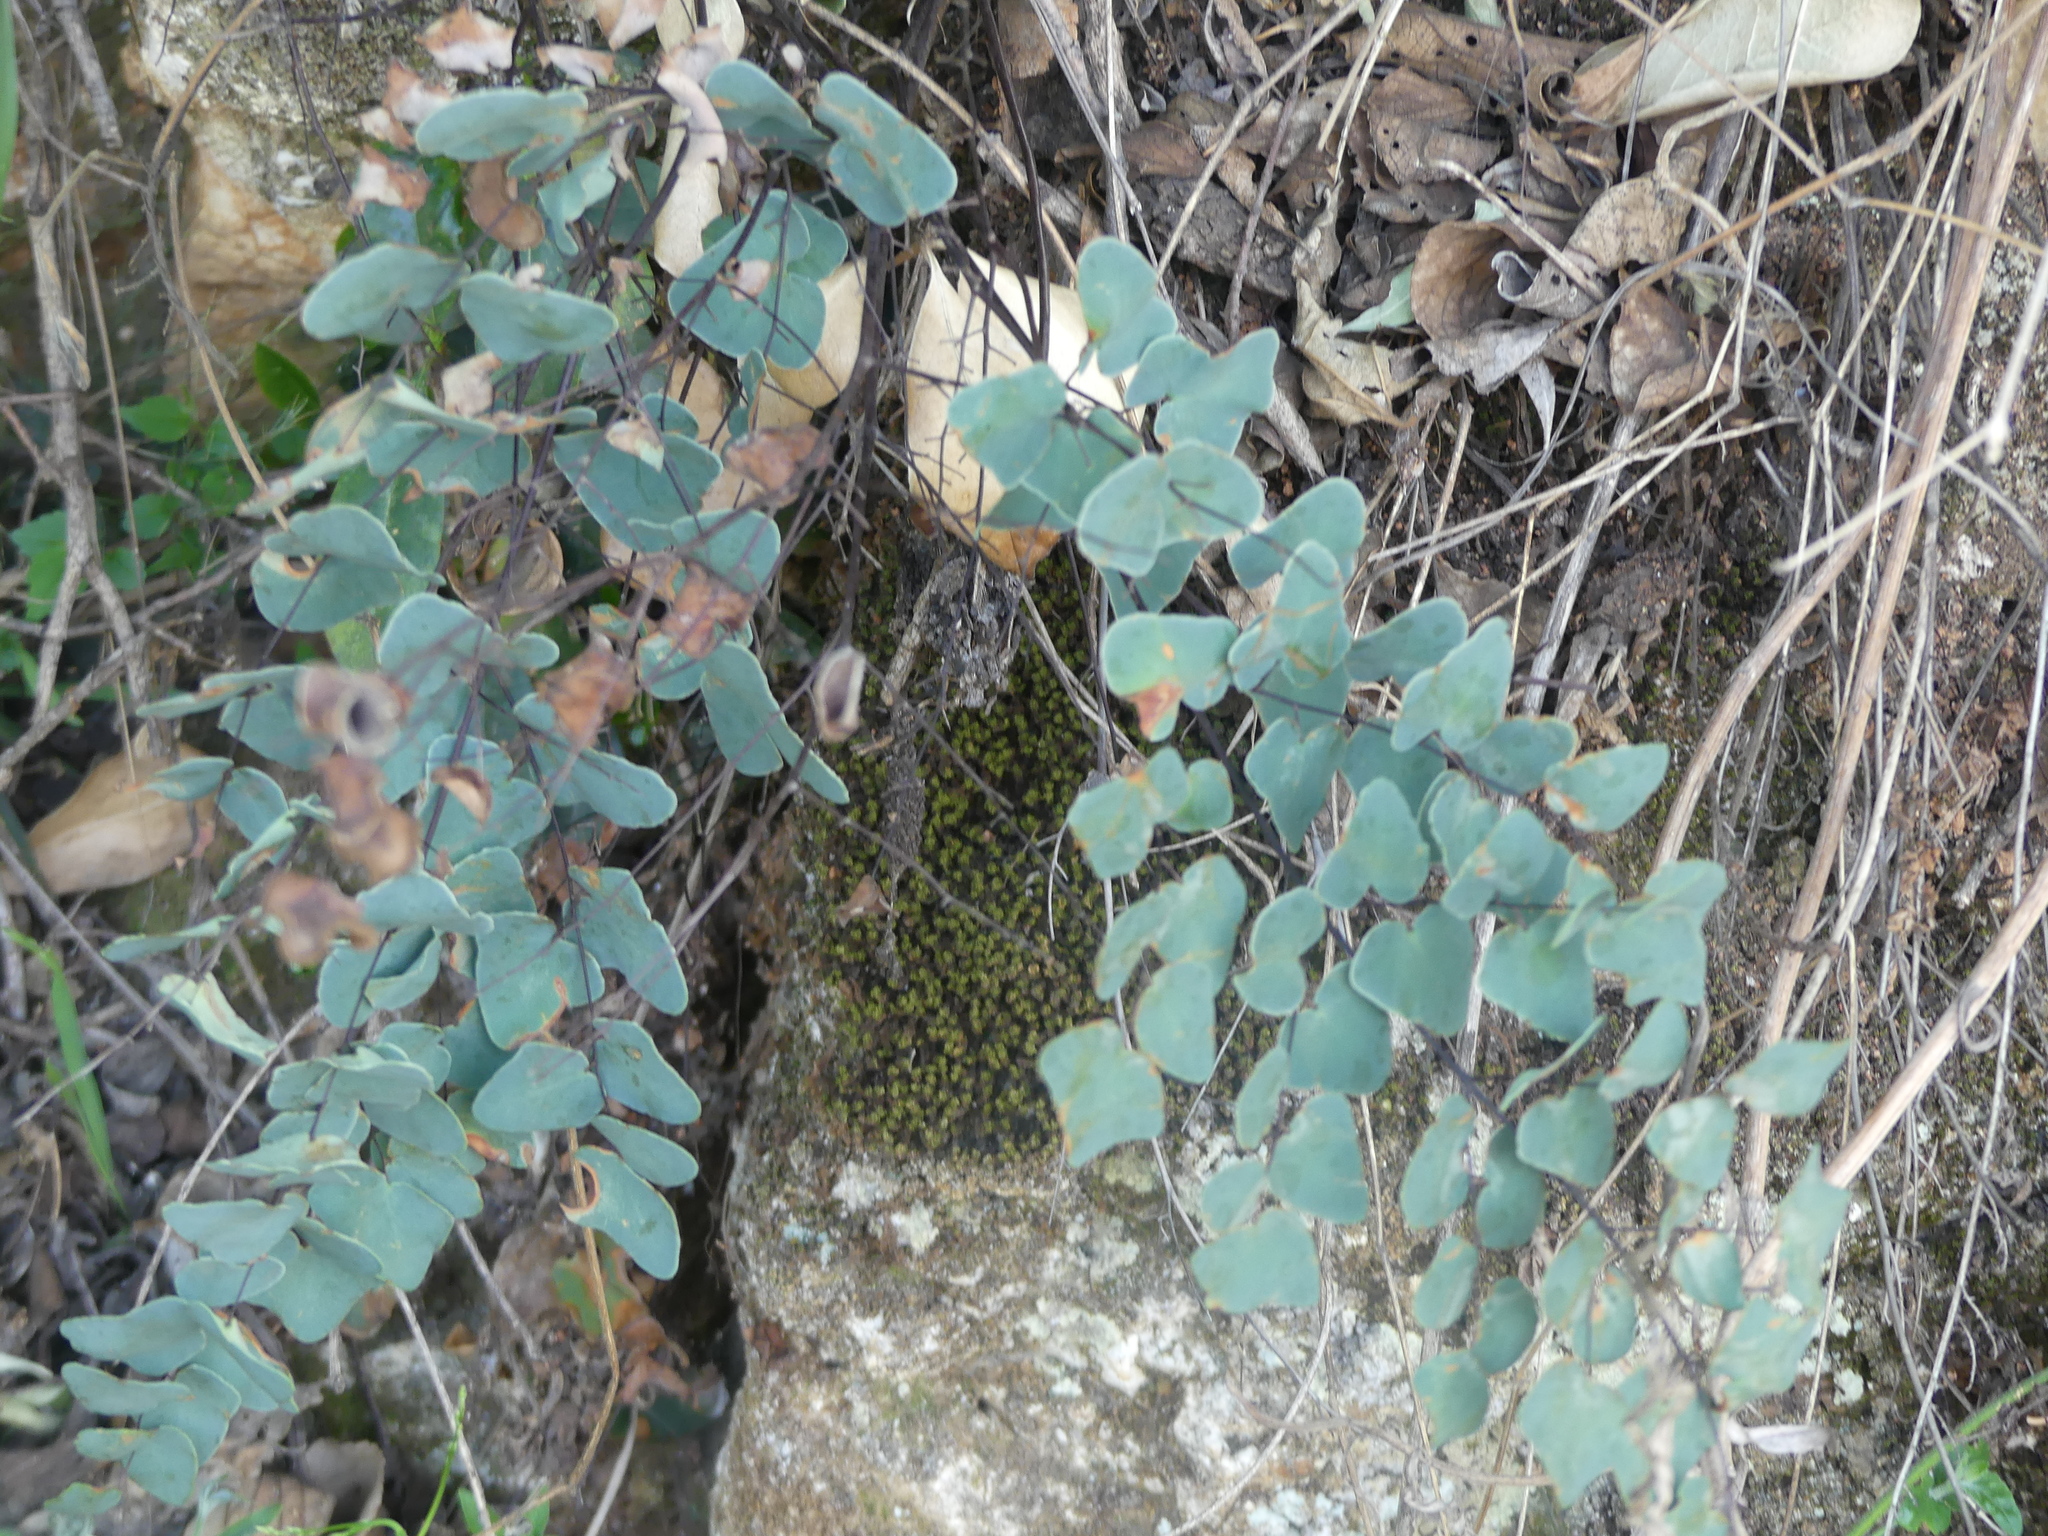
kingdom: Plantae
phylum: Tracheophyta
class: Polypodiopsida
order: Polypodiales
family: Pteridaceae
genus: Pellaea
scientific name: Pellaea calomelanos
